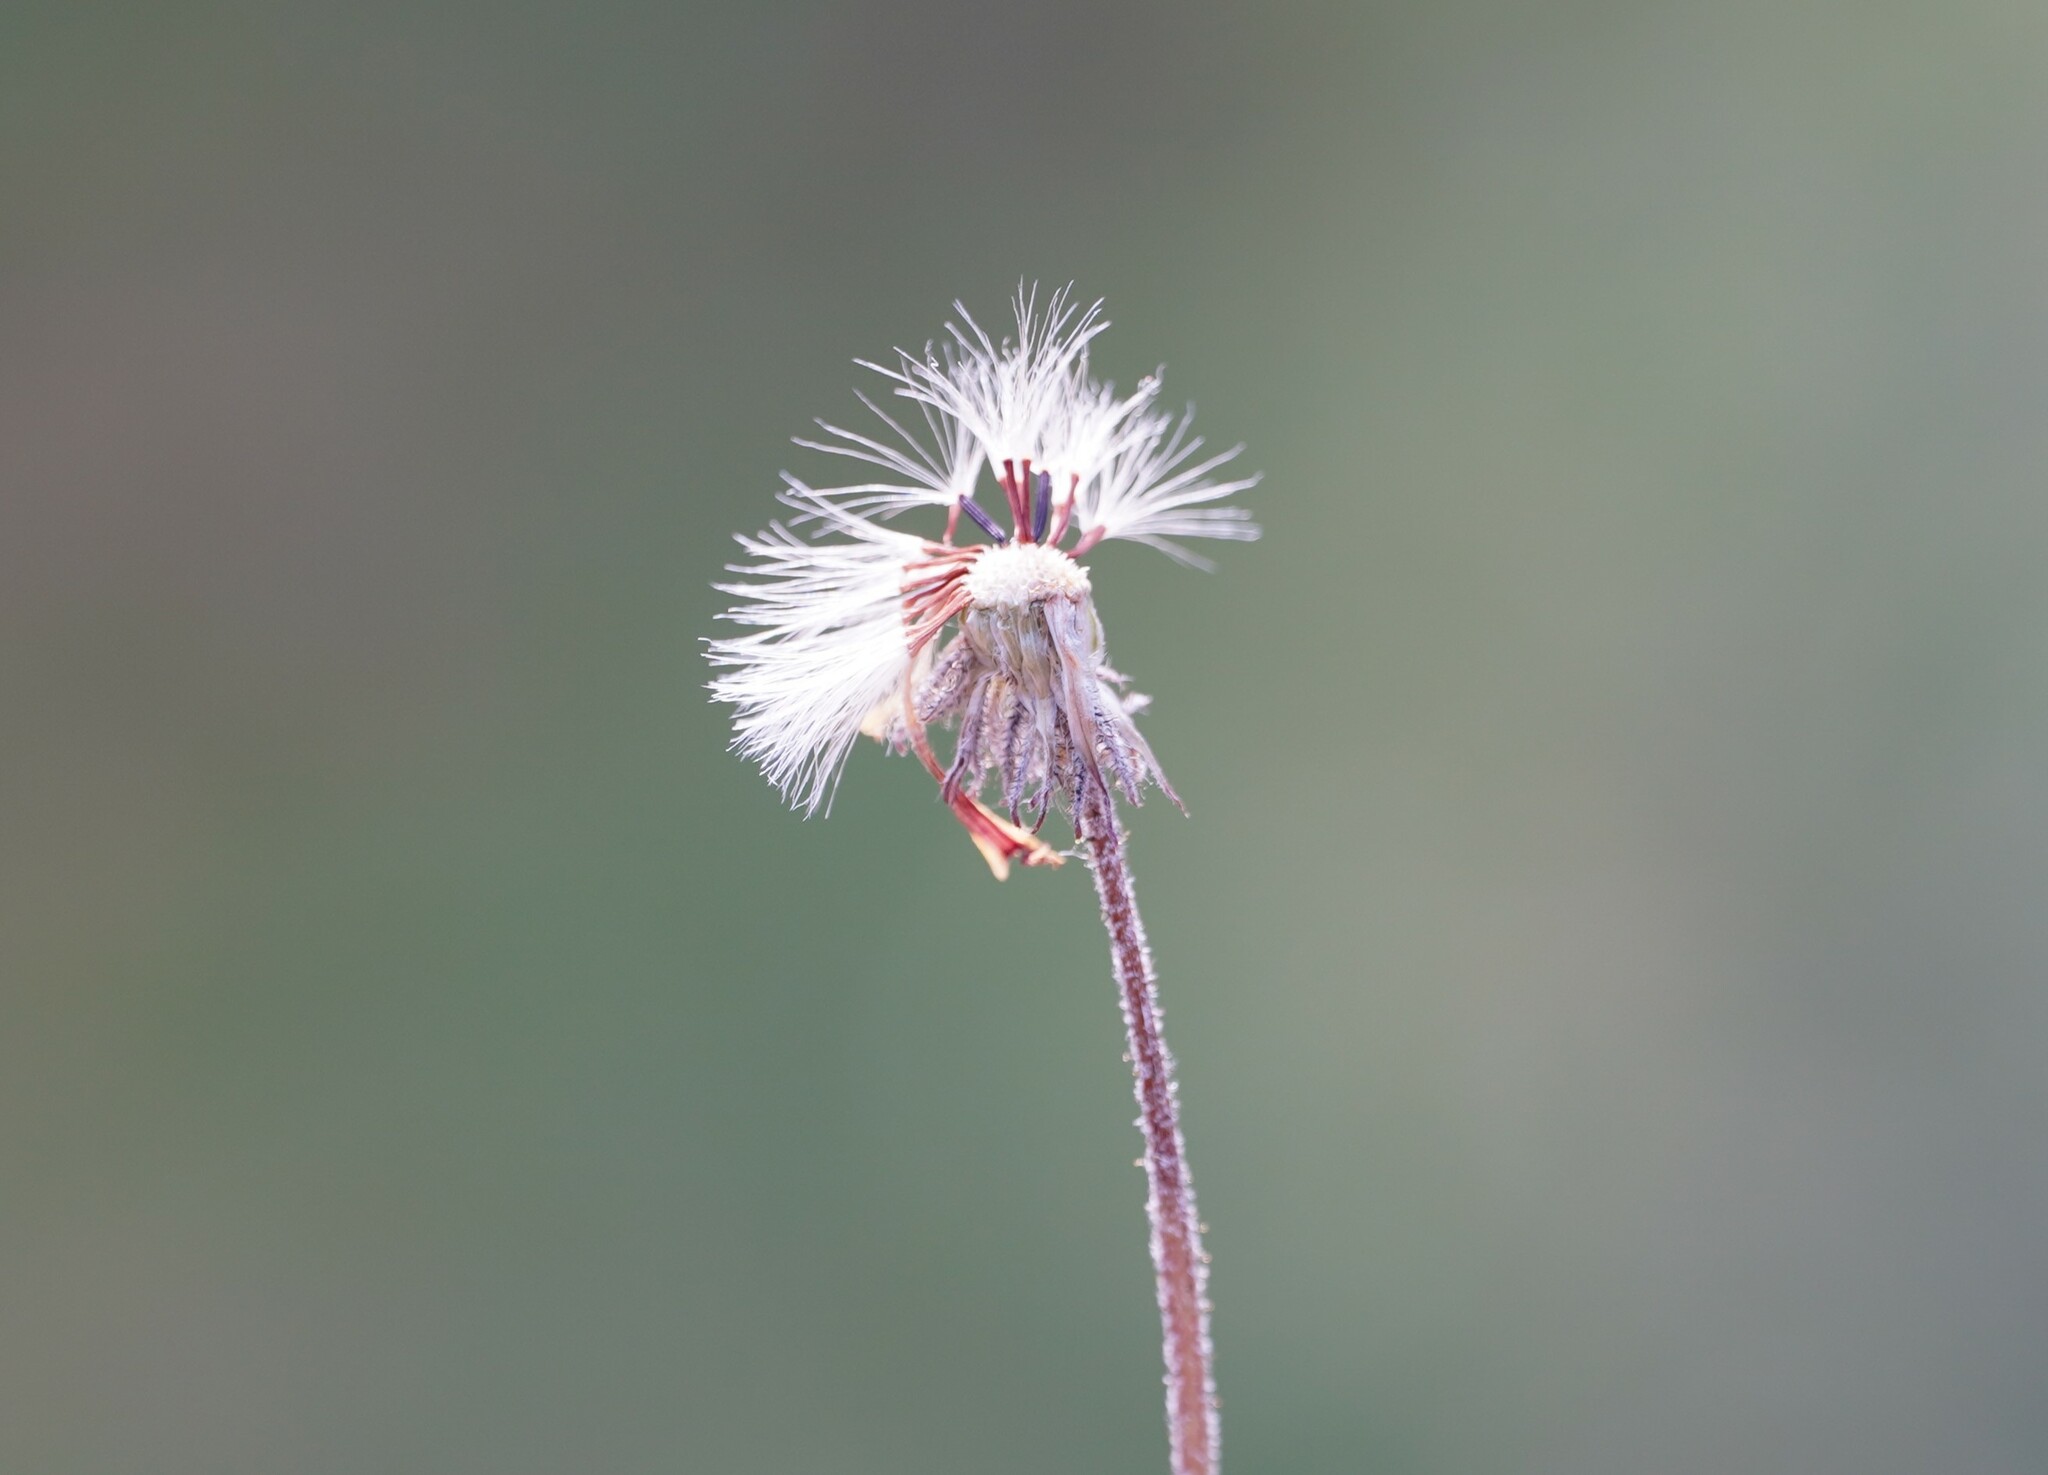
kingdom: Plantae
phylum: Tracheophyta
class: Magnoliopsida
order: Asterales
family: Asteraceae
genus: Pilosella
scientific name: Pilosella officinarum
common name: Mouse-ear hawkweed
